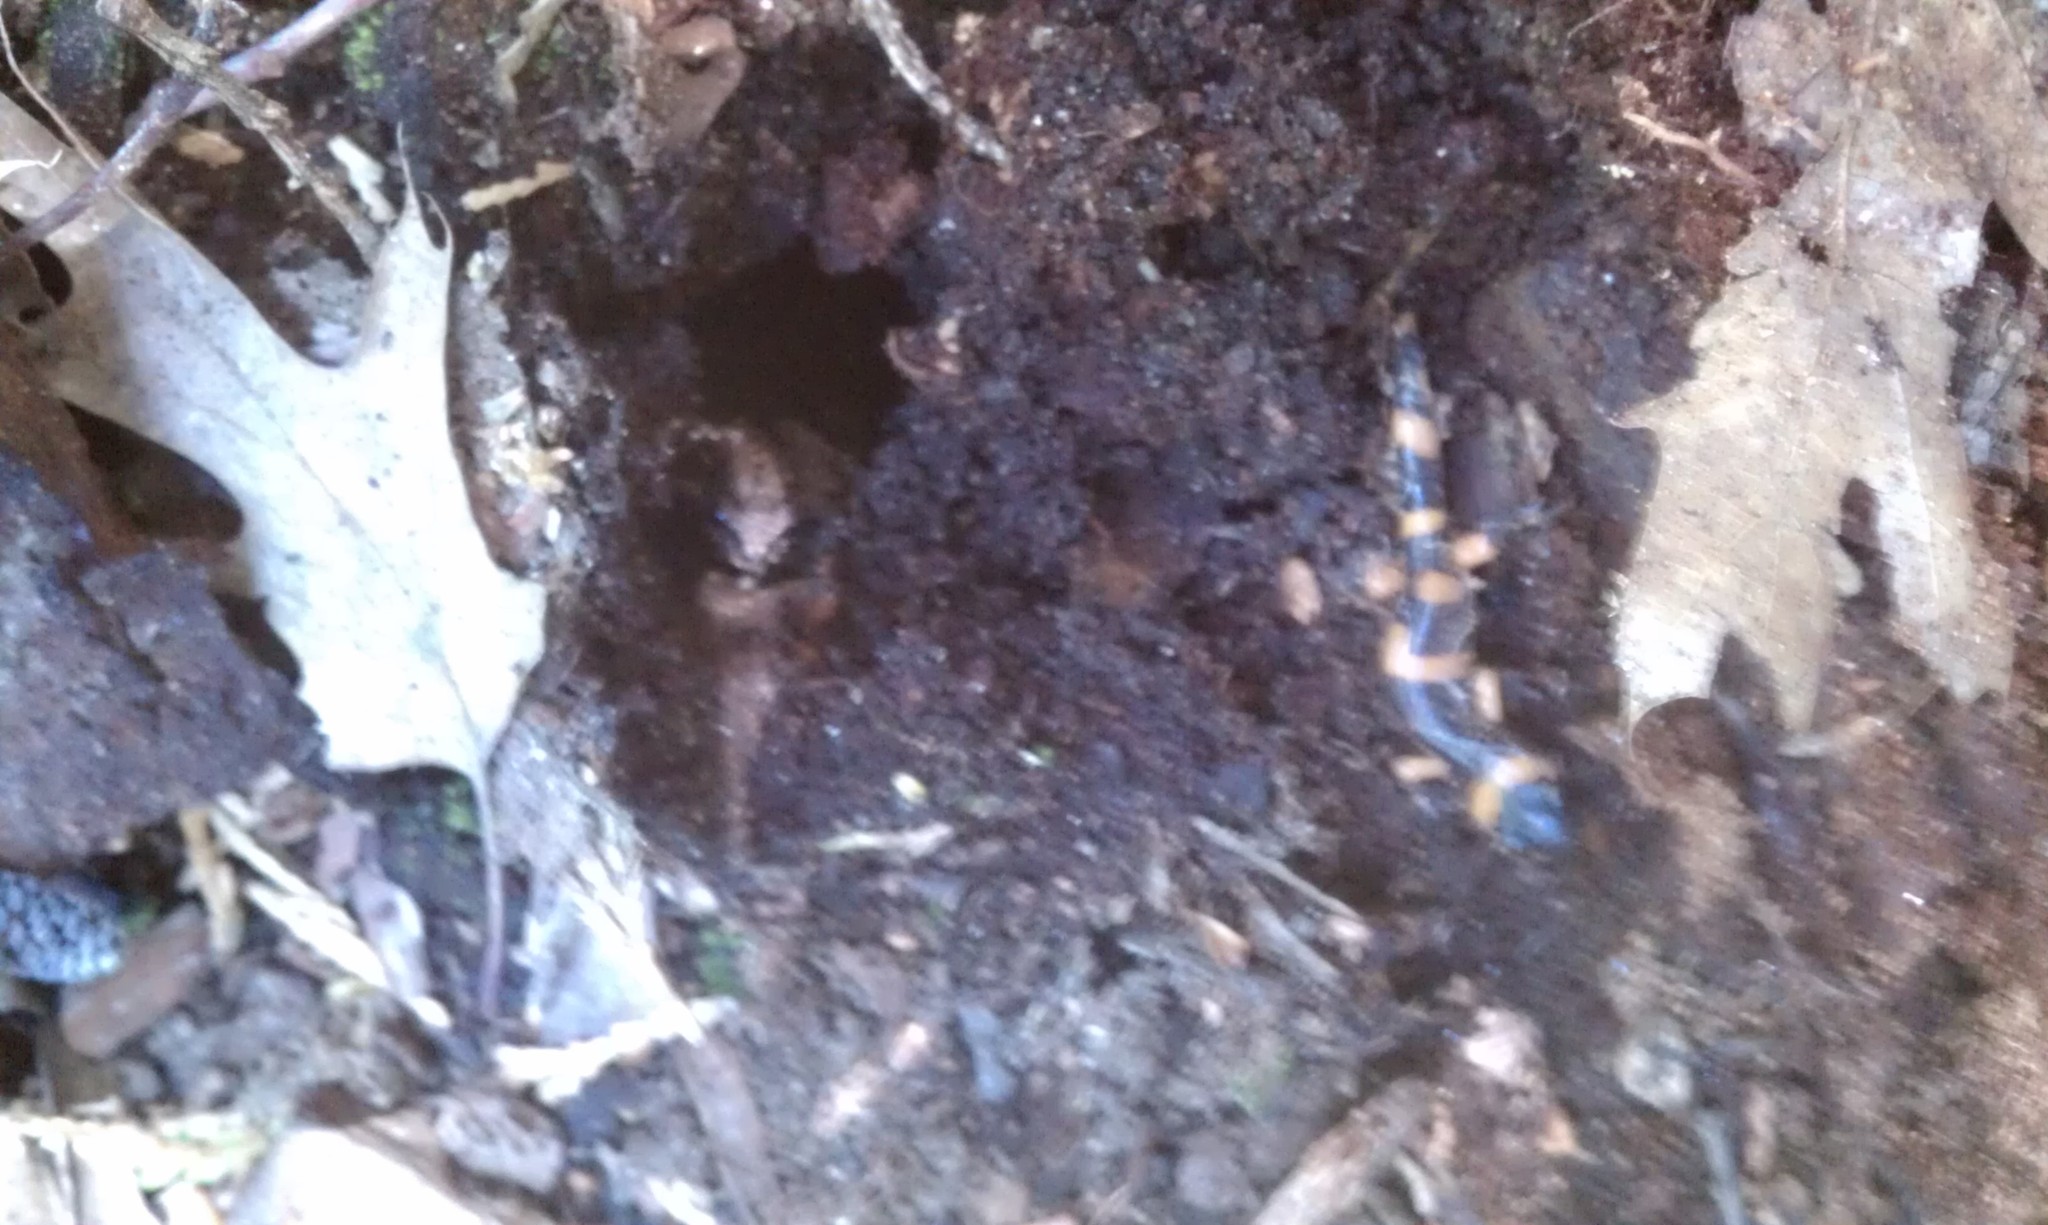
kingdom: Animalia
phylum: Chordata
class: Amphibia
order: Caudata
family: Plethodontidae
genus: Ensatina
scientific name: Ensatina eschscholtzii
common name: Ensatina
